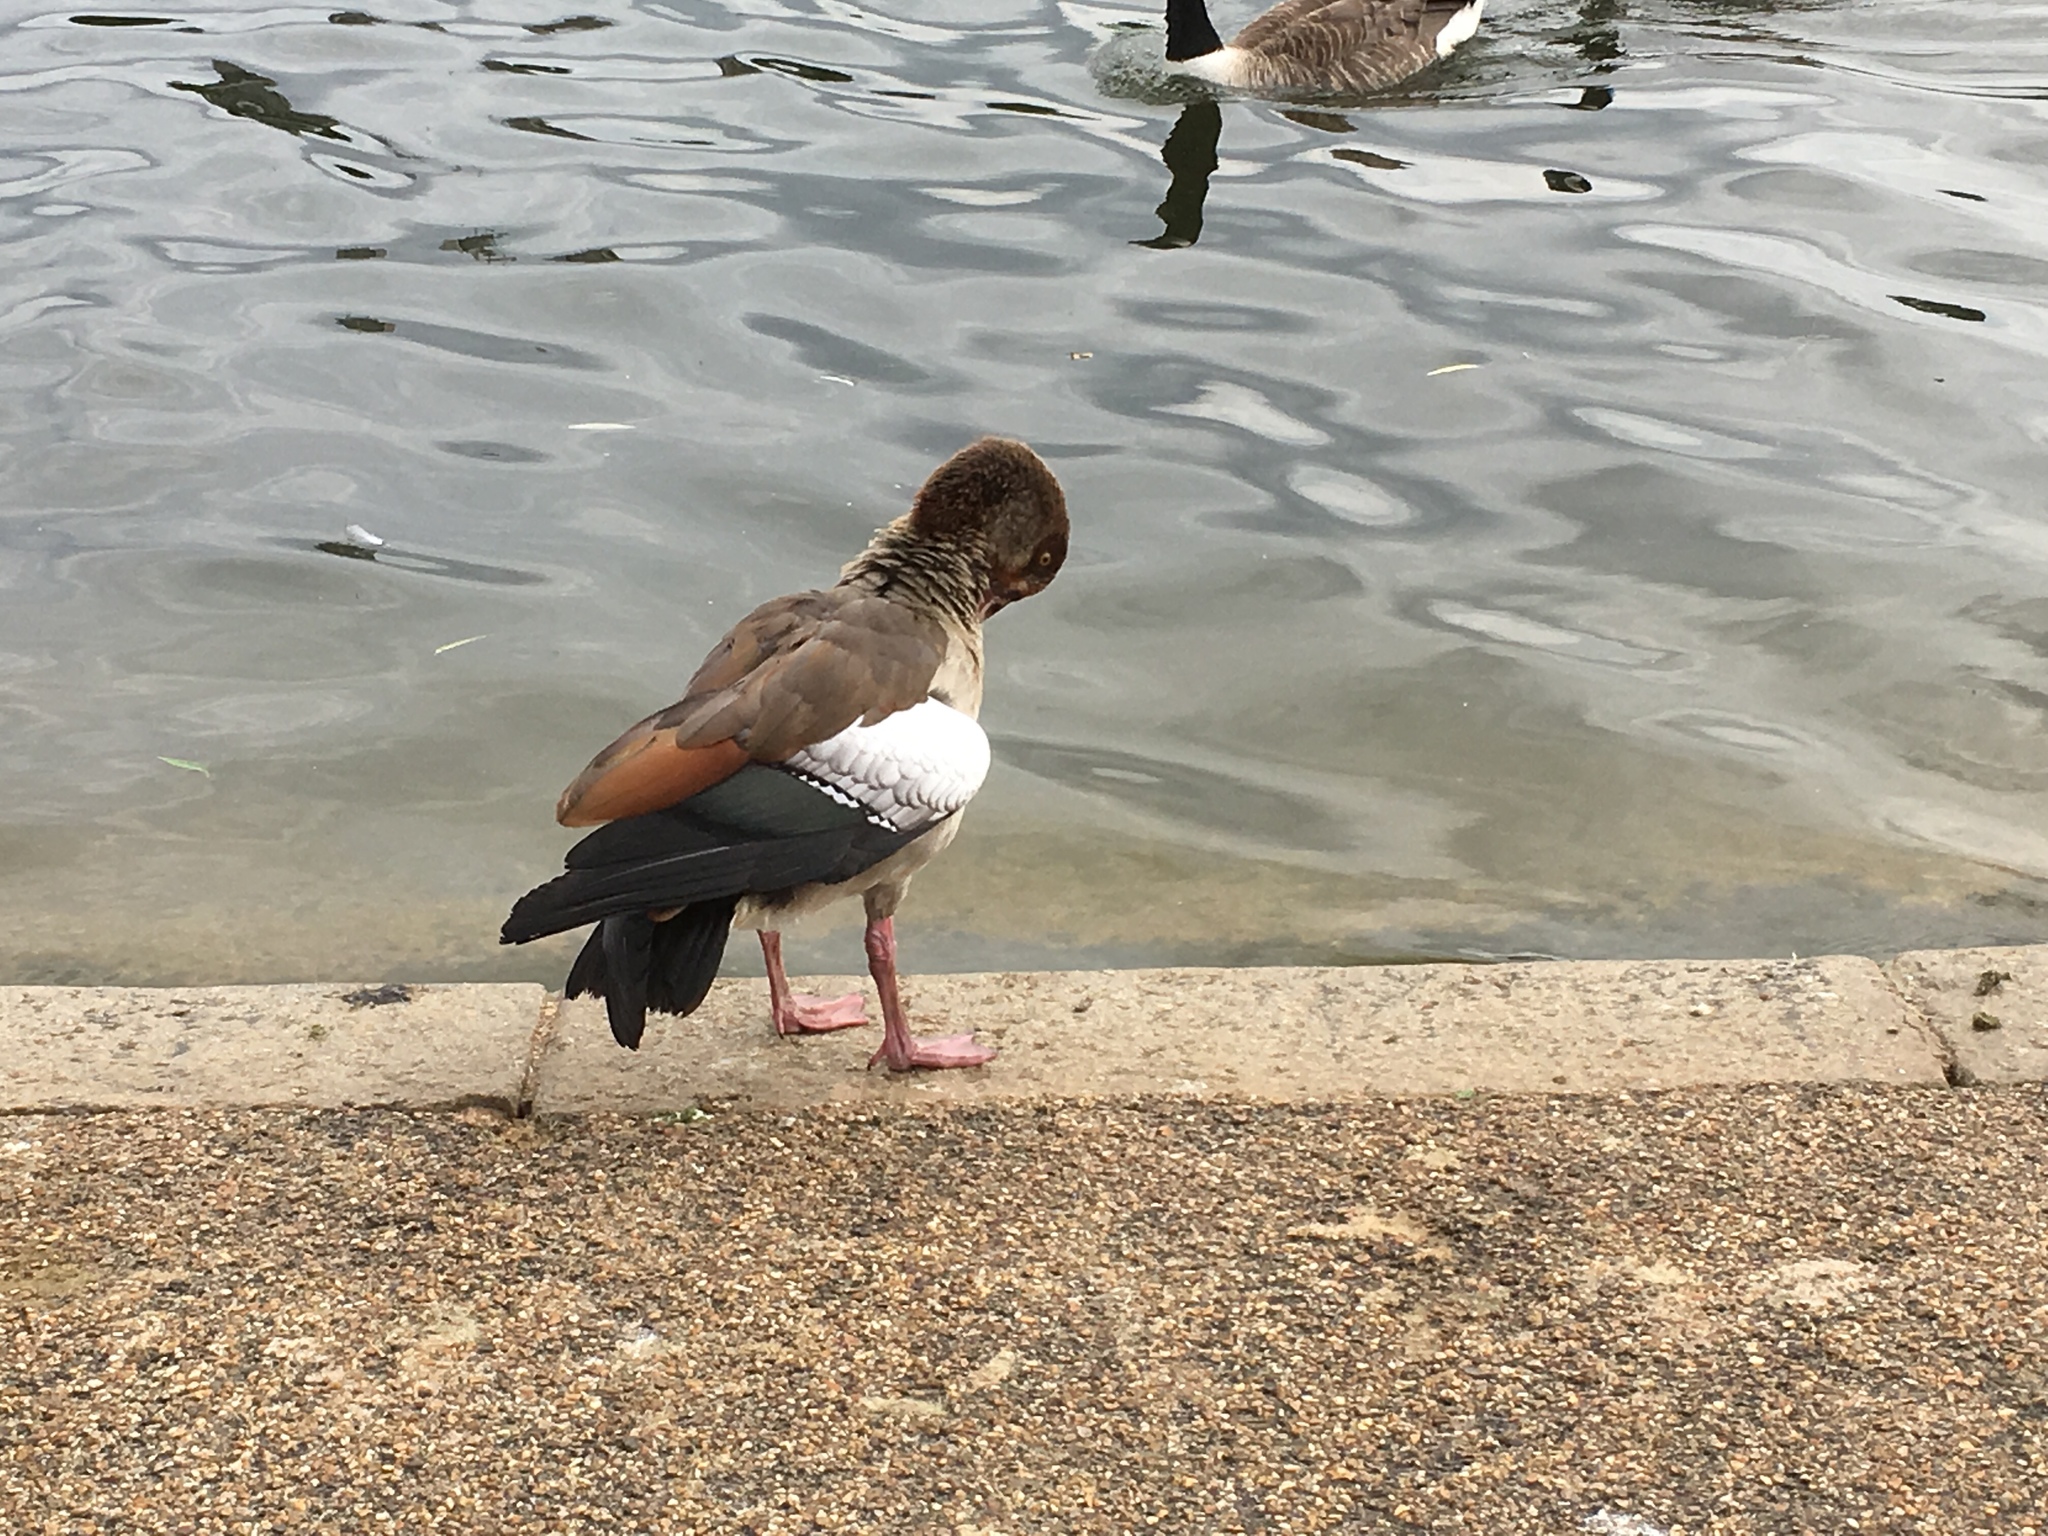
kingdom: Animalia
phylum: Chordata
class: Aves
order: Anseriformes
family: Anatidae
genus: Alopochen
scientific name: Alopochen aegyptiaca
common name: Egyptian goose
